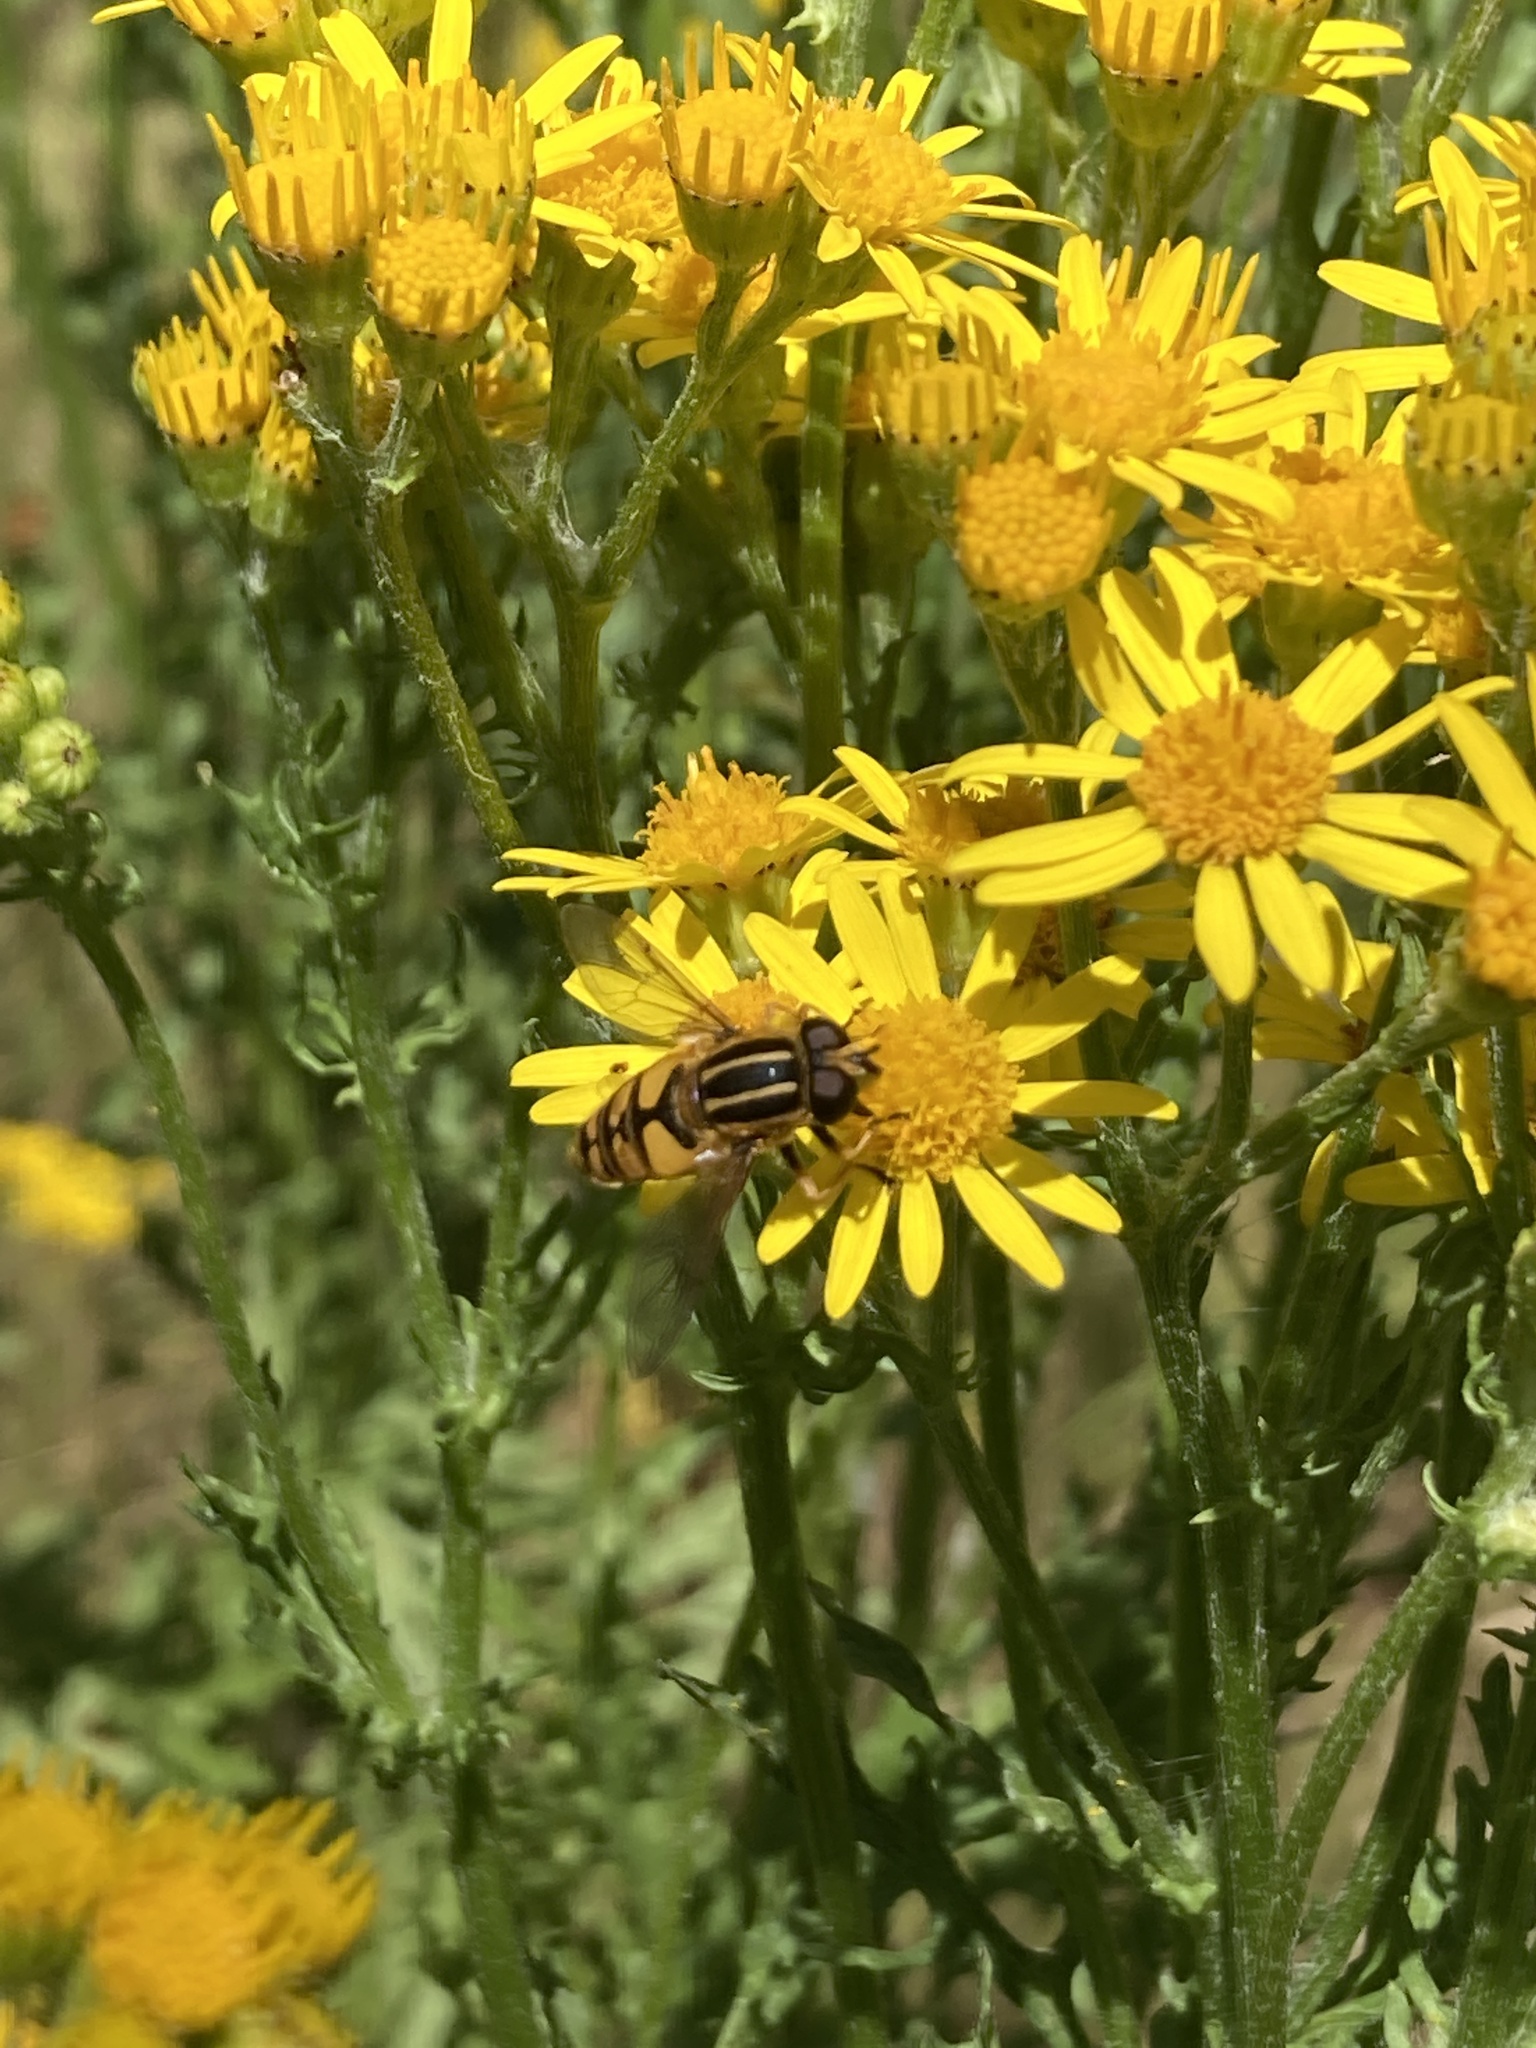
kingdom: Animalia
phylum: Arthropoda
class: Insecta
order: Diptera
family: Syrphidae
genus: Helophilus
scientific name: Helophilus pendulus
